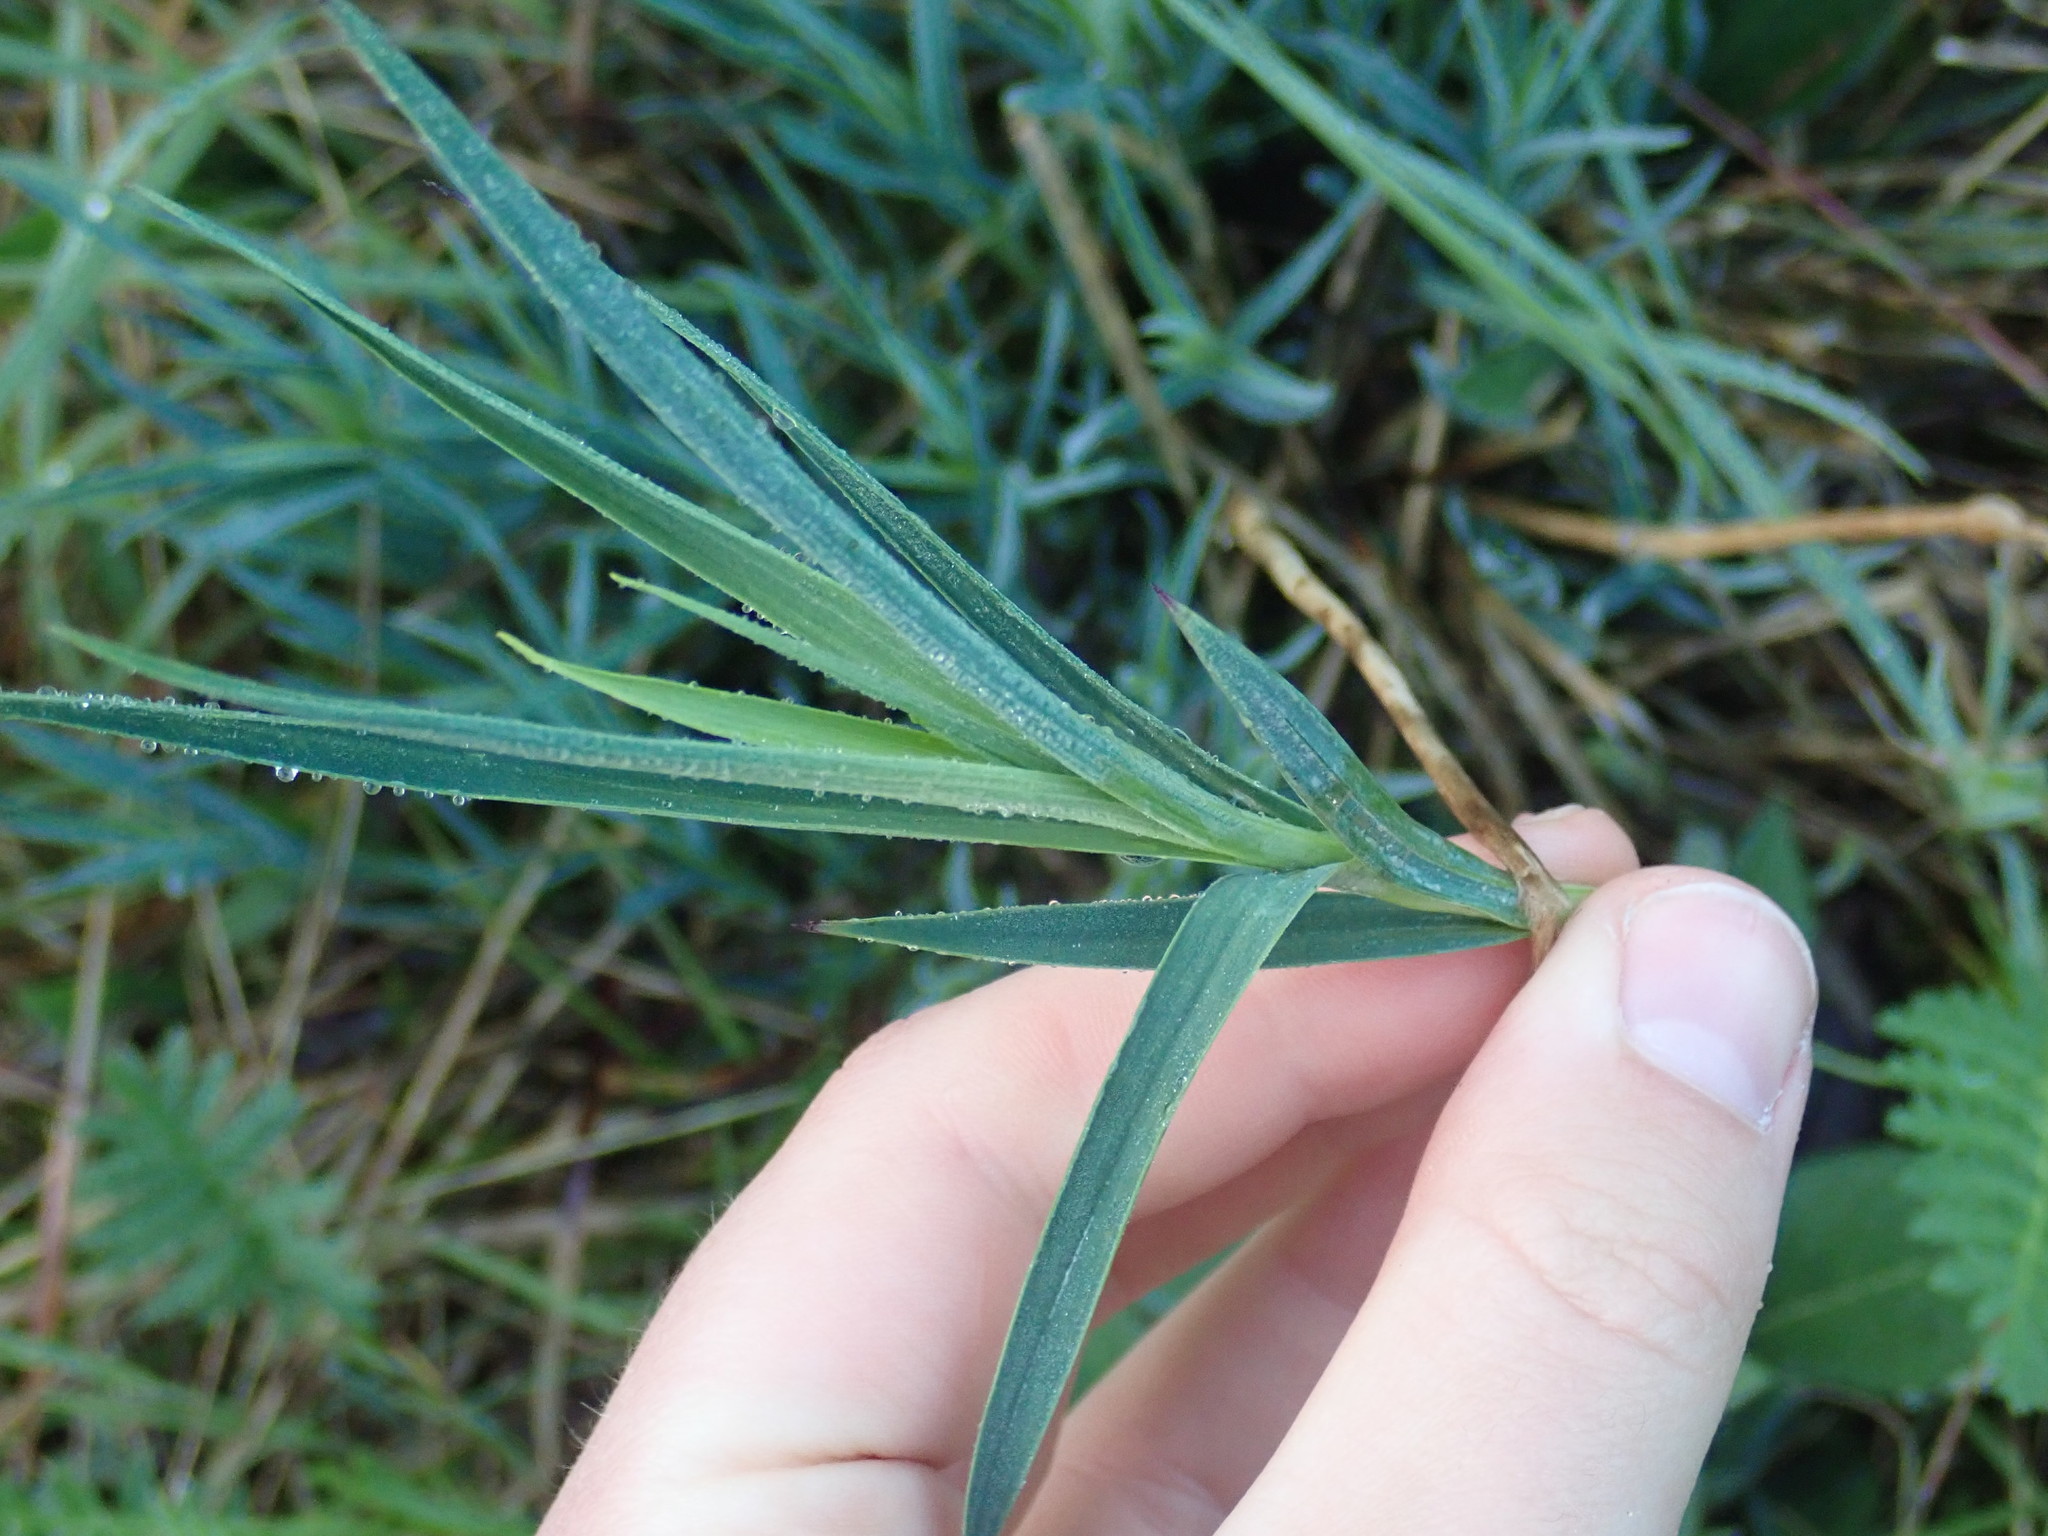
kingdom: Plantae
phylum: Tracheophyta
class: Magnoliopsida
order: Caryophyllales
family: Caryophyllaceae
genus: Dianthus
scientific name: Dianthus
